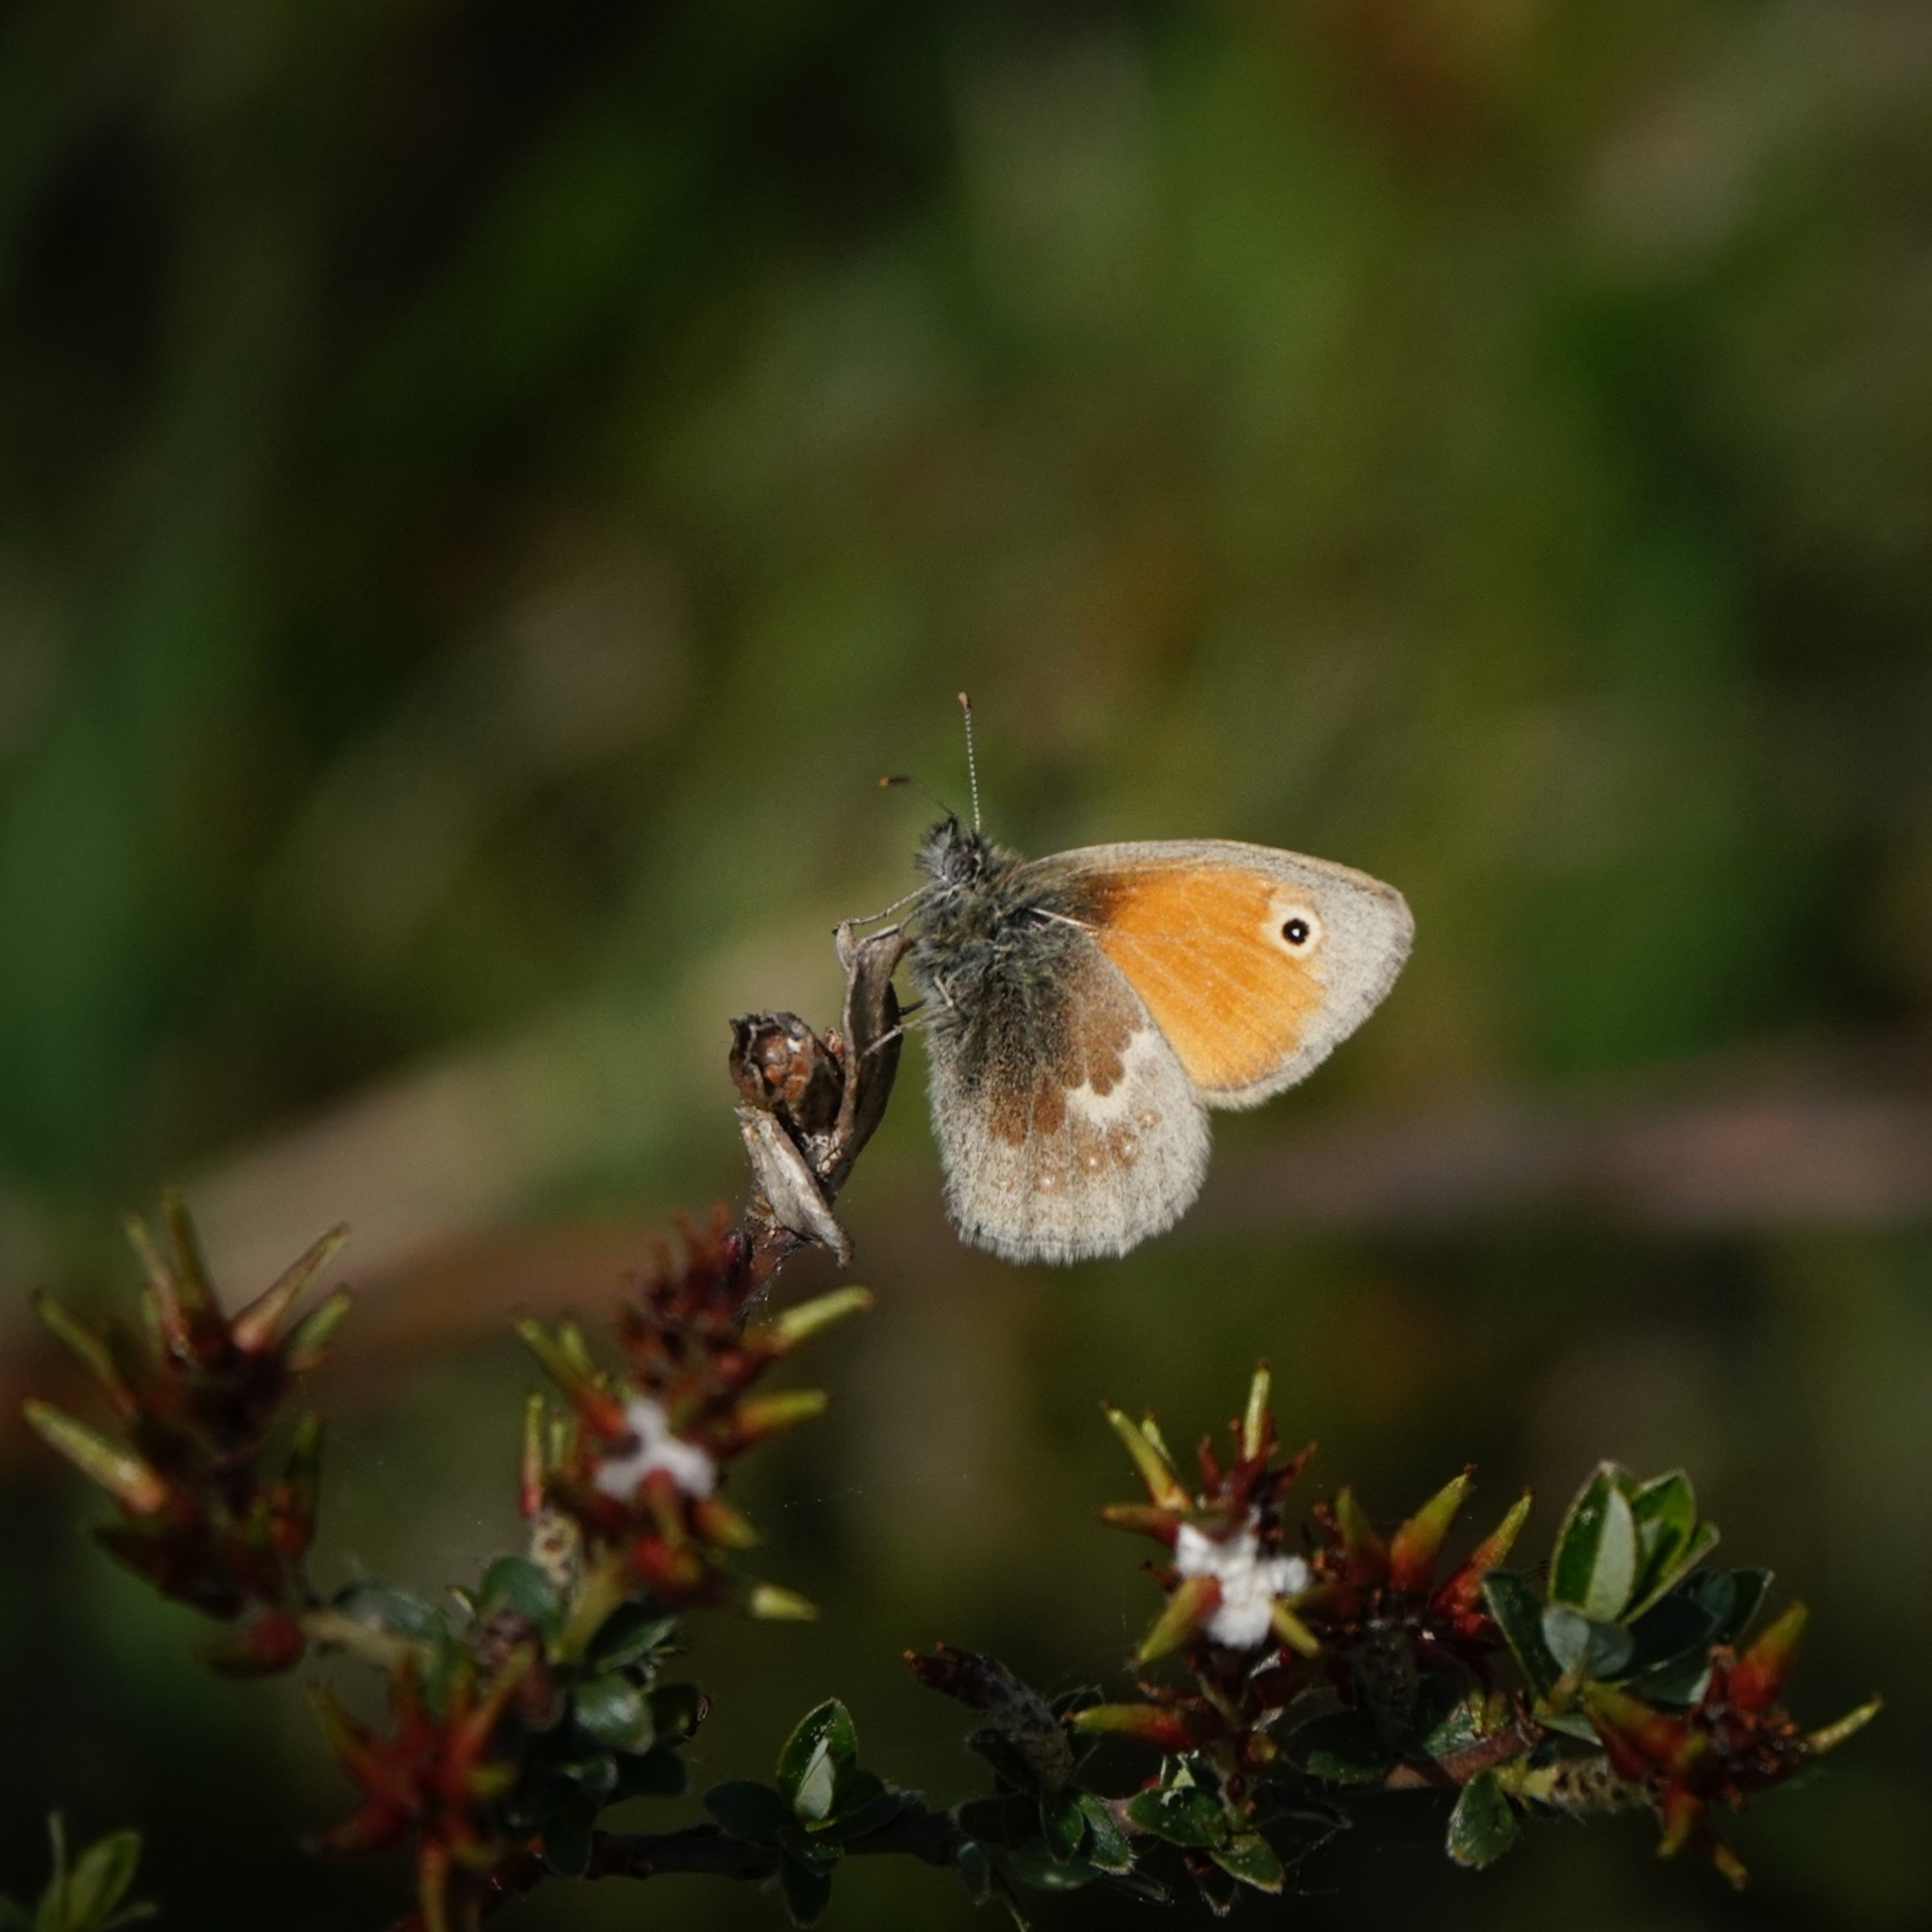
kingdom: Animalia
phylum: Arthropoda
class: Insecta
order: Lepidoptera
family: Nymphalidae
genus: Coenonympha
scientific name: Coenonympha pamphilus
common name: Small heath
